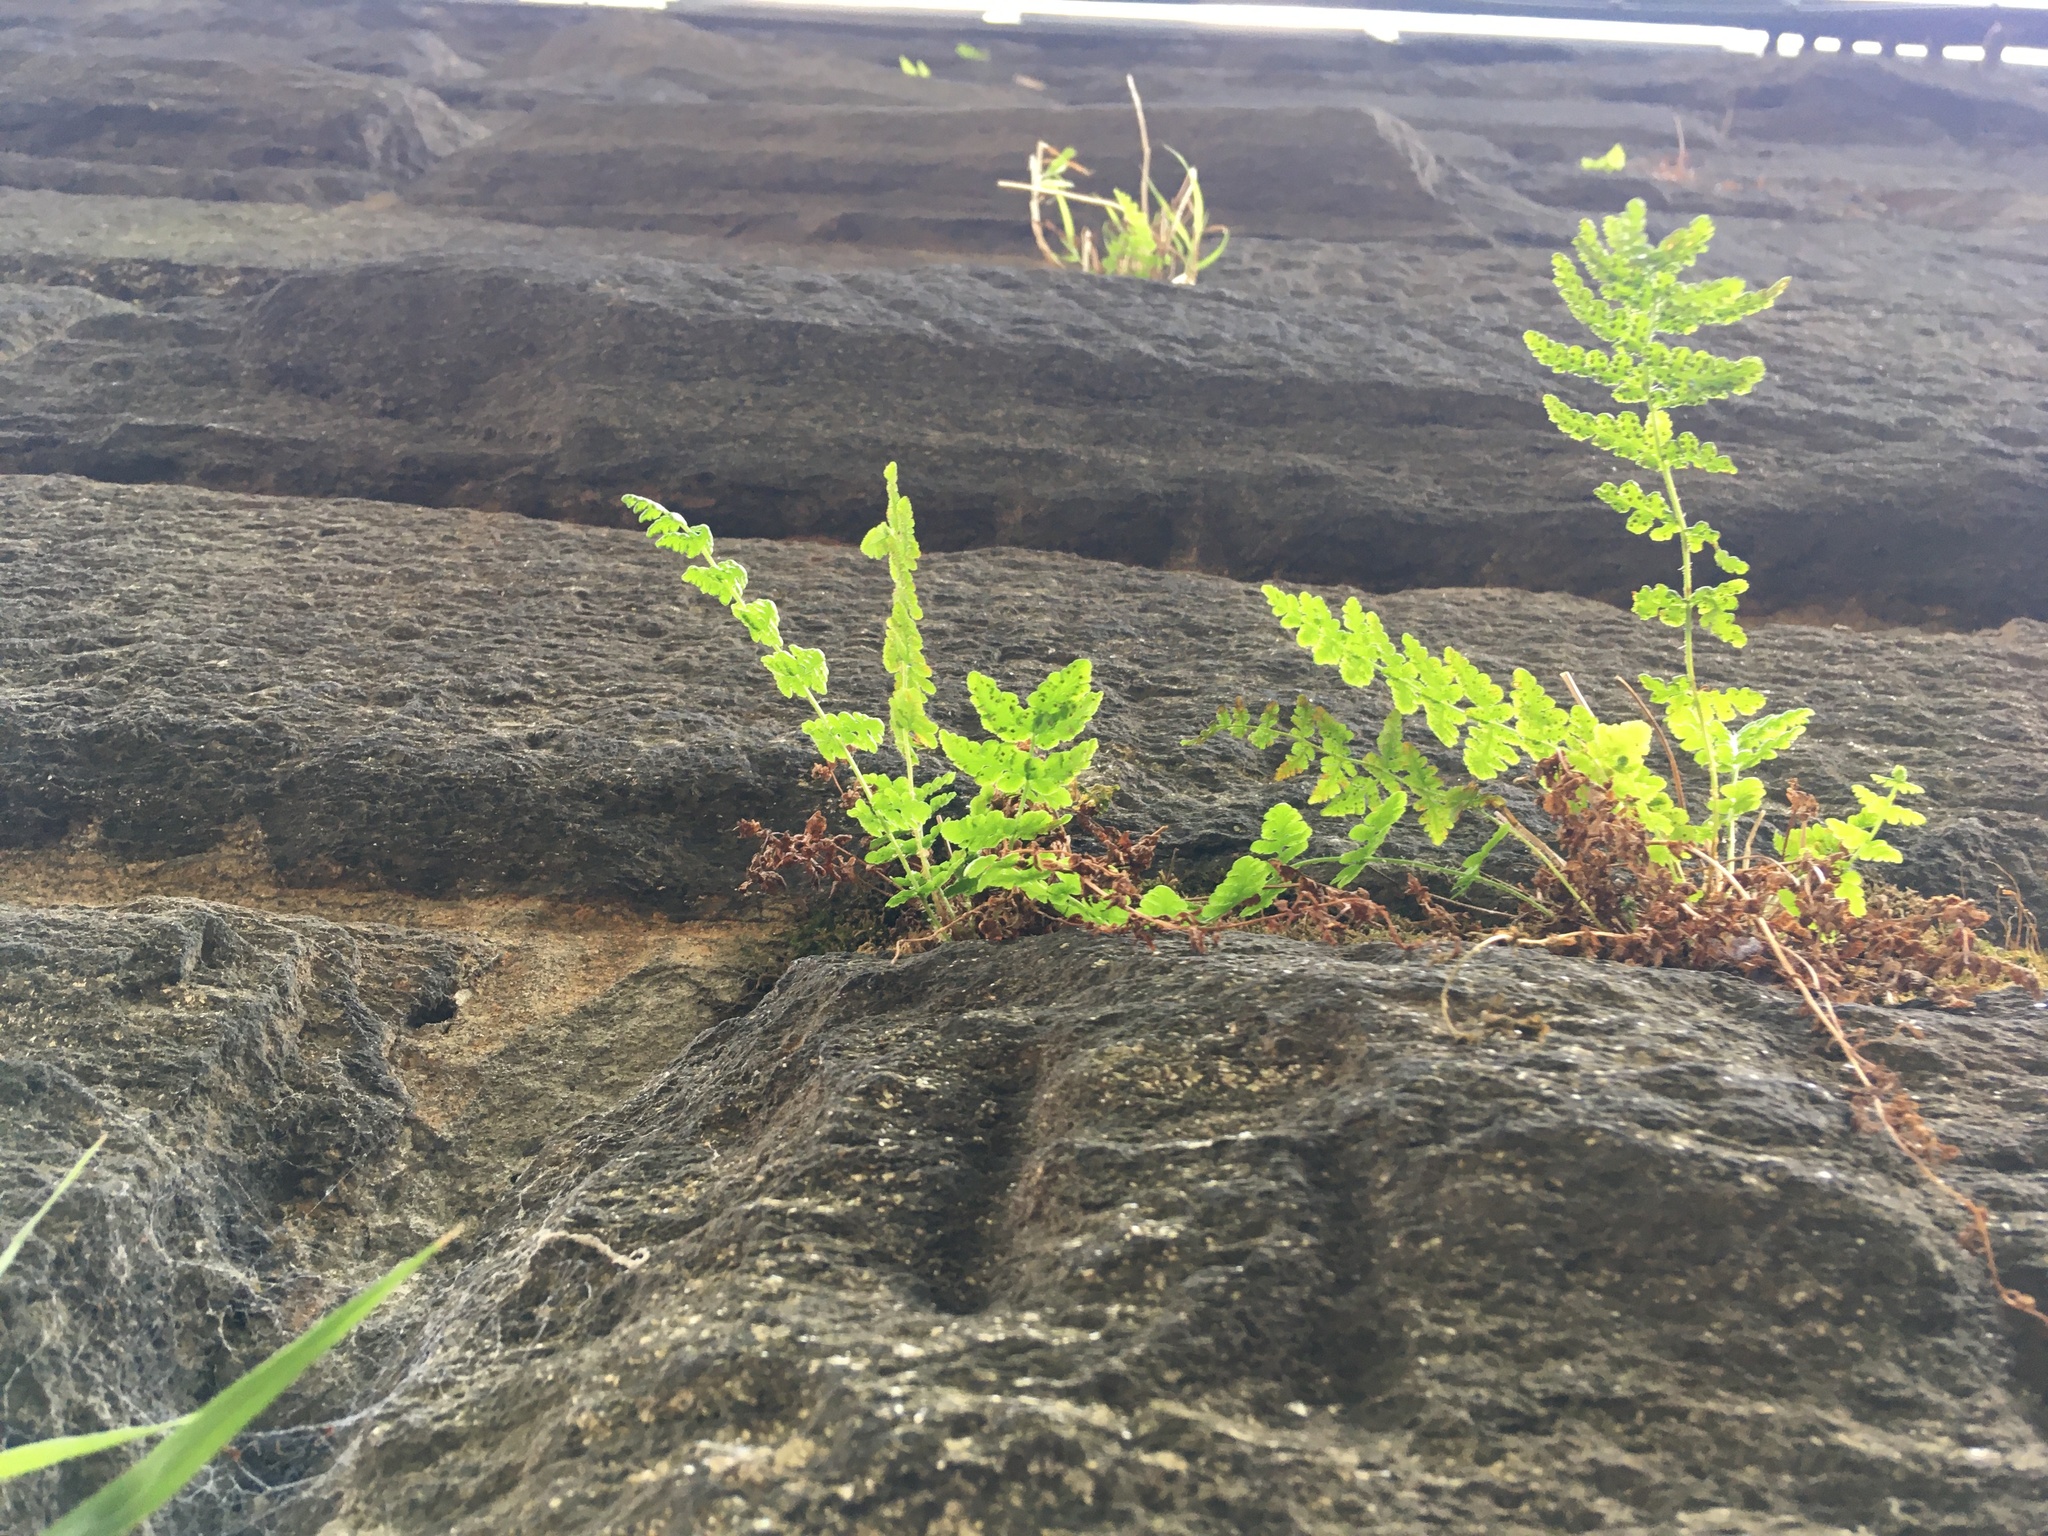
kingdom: Plantae
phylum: Tracheophyta
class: Polypodiopsida
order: Polypodiales
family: Woodsiaceae
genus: Physematium
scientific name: Physematium obtusum
